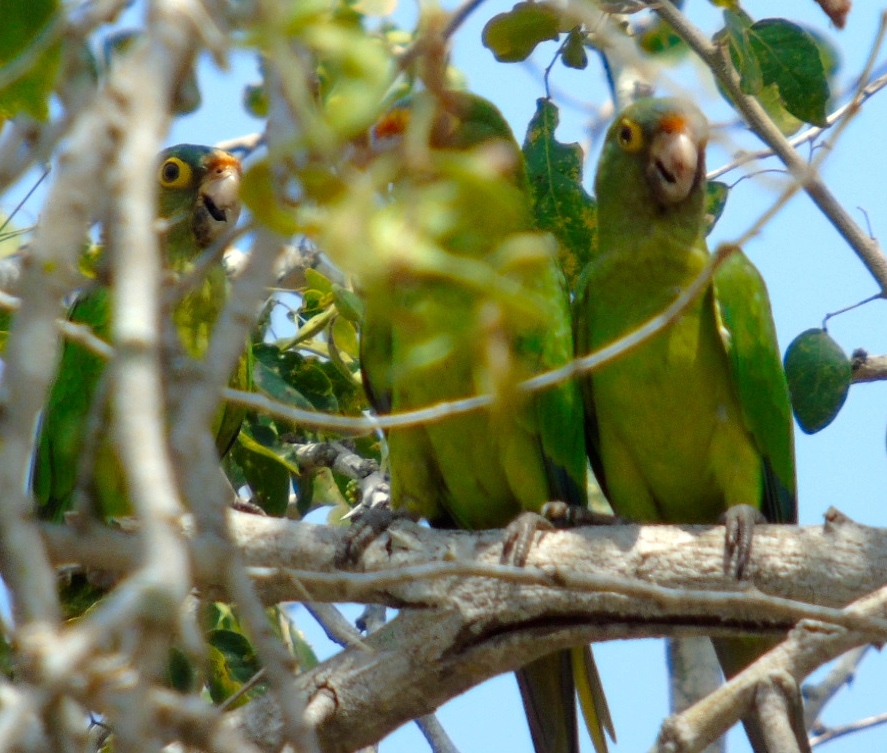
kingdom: Animalia
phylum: Chordata
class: Aves
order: Psittaciformes
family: Psittacidae
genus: Aratinga
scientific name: Aratinga canicularis
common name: Orange-fronted parakeet
